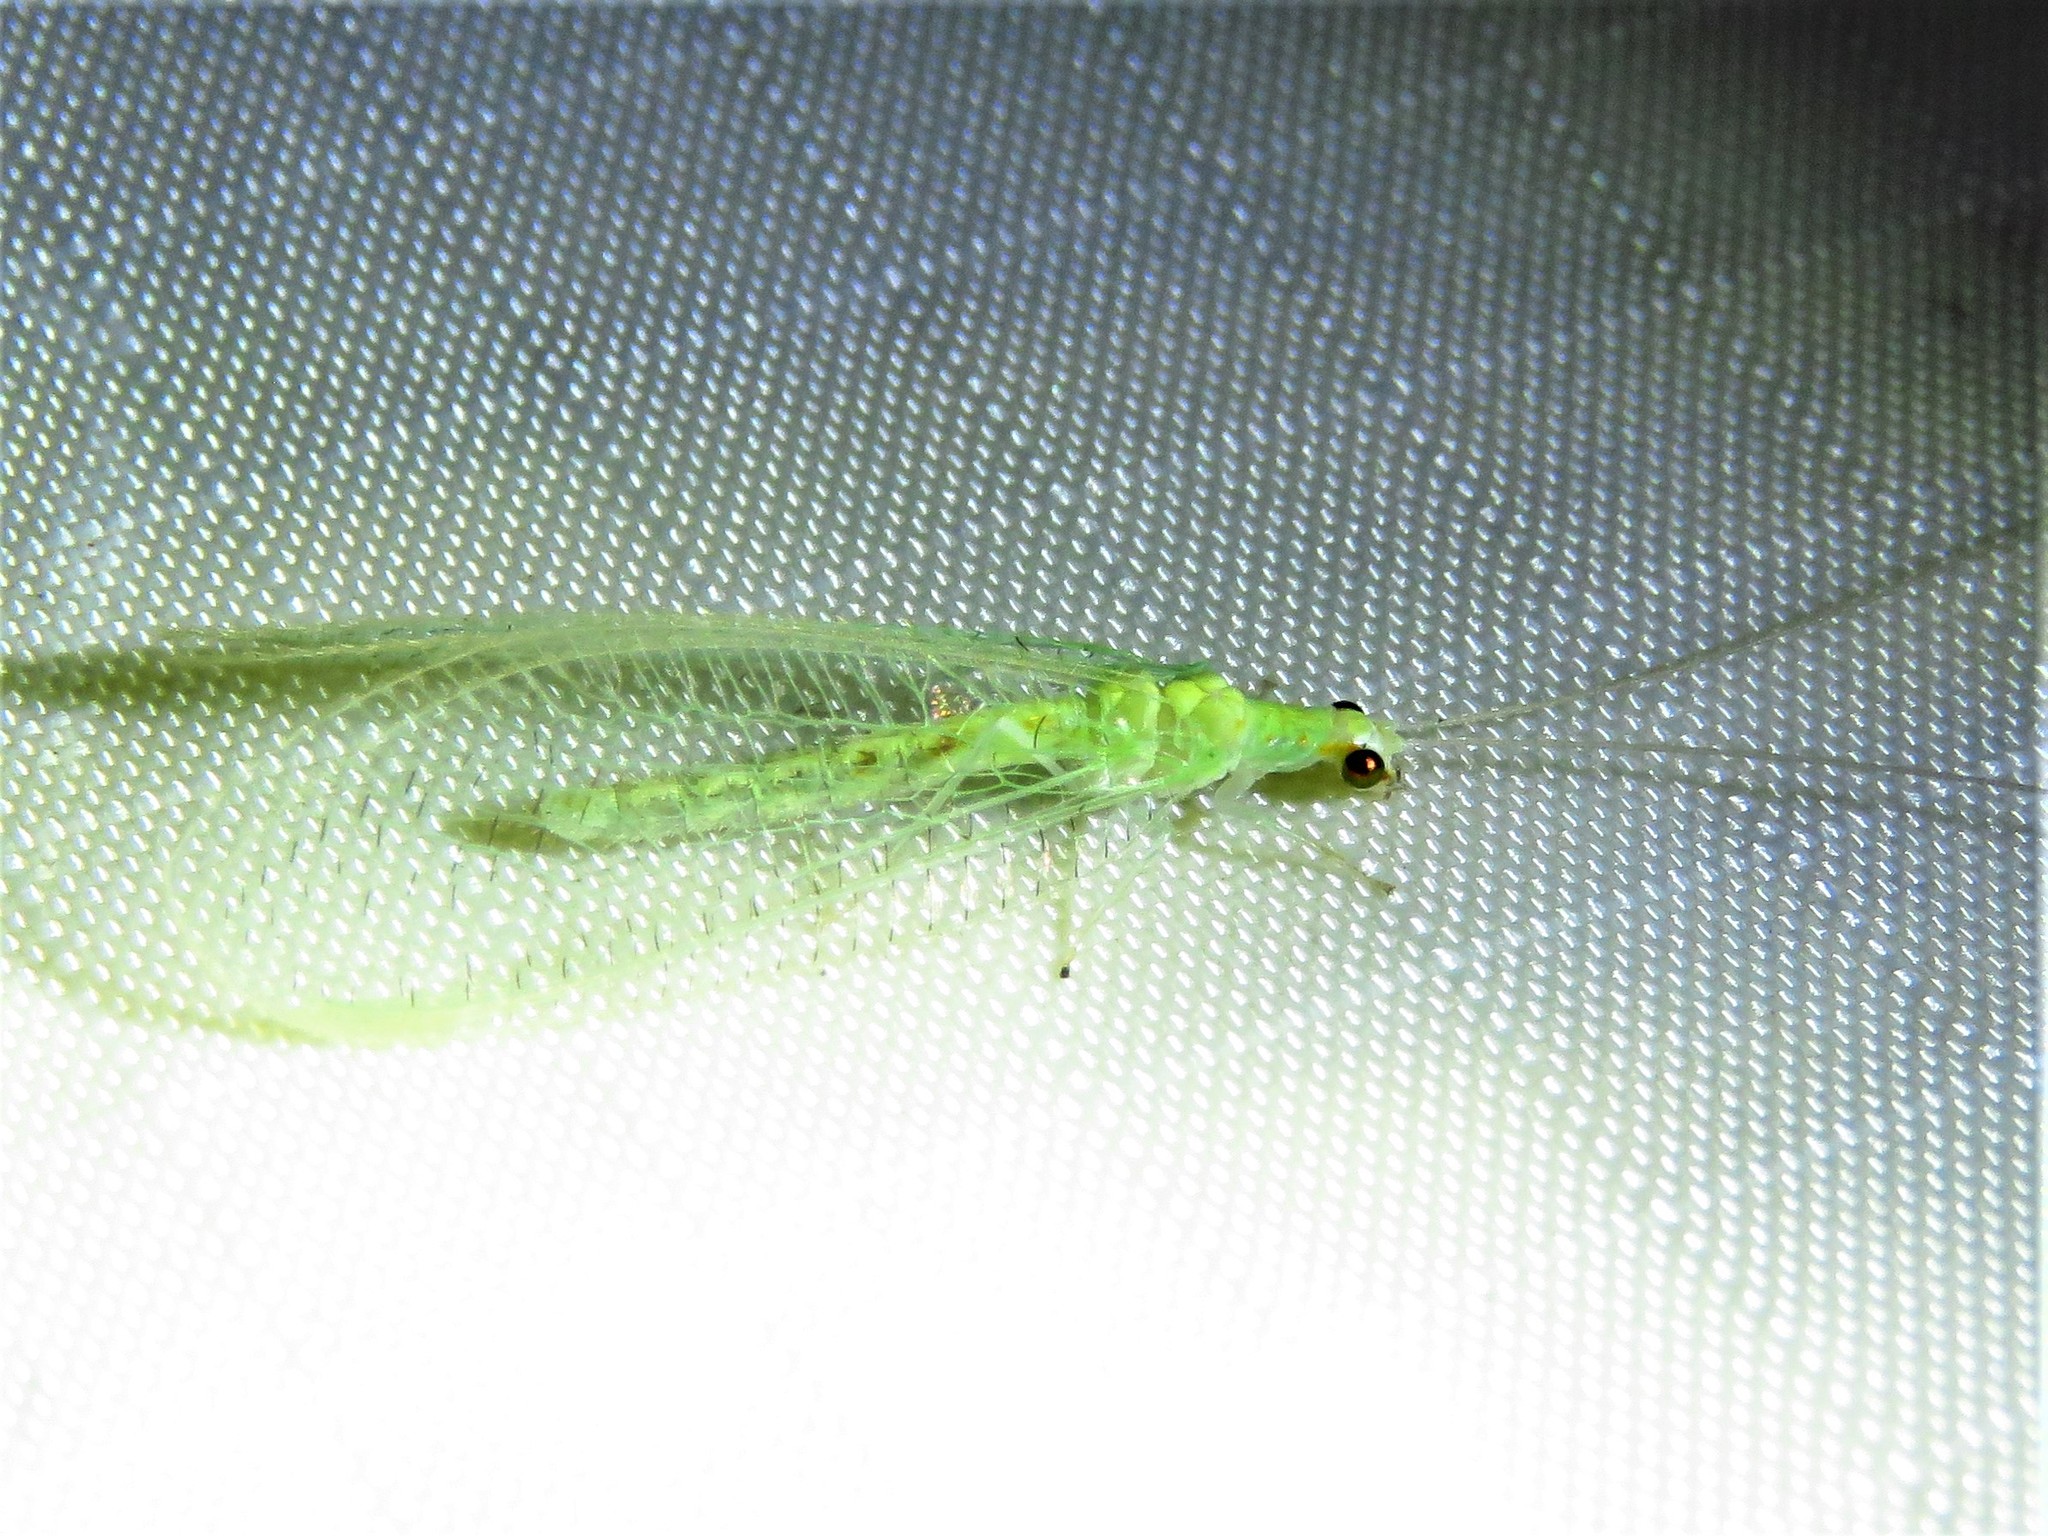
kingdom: Animalia
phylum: Arthropoda
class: Insecta
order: Neuroptera
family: Chrysopidae
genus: Chrysopa
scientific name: Chrysopa quadripunctata
